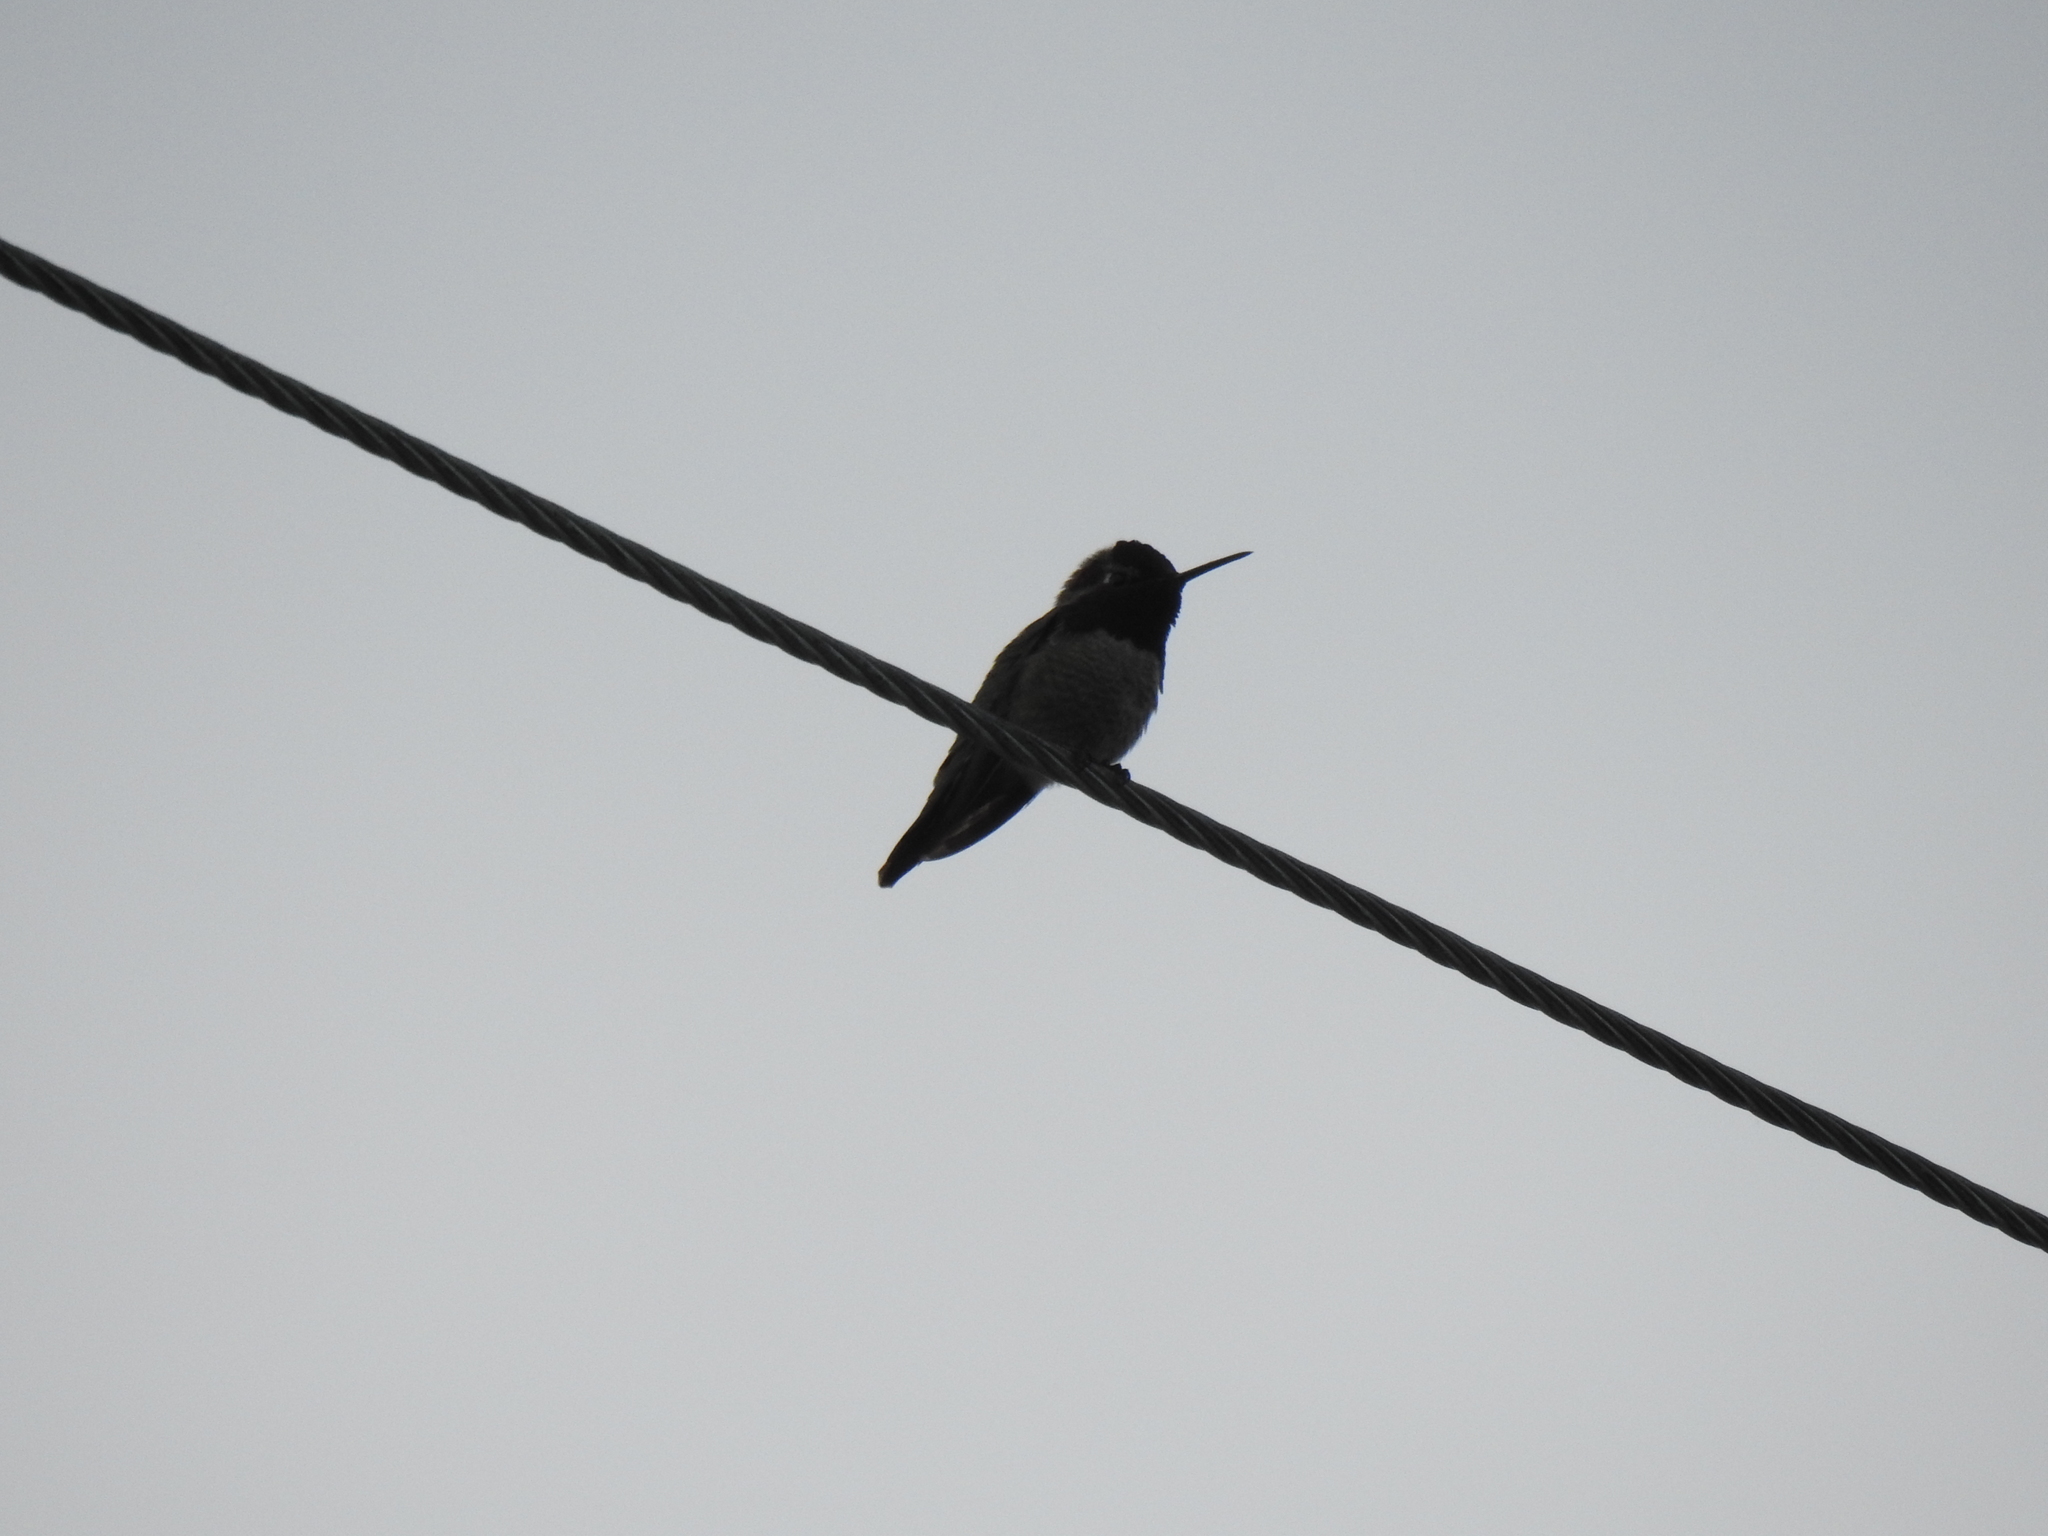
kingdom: Animalia
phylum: Chordata
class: Aves
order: Apodiformes
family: Trochilidae
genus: Calypte
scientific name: Calypte anna
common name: Anna's hummingbird
